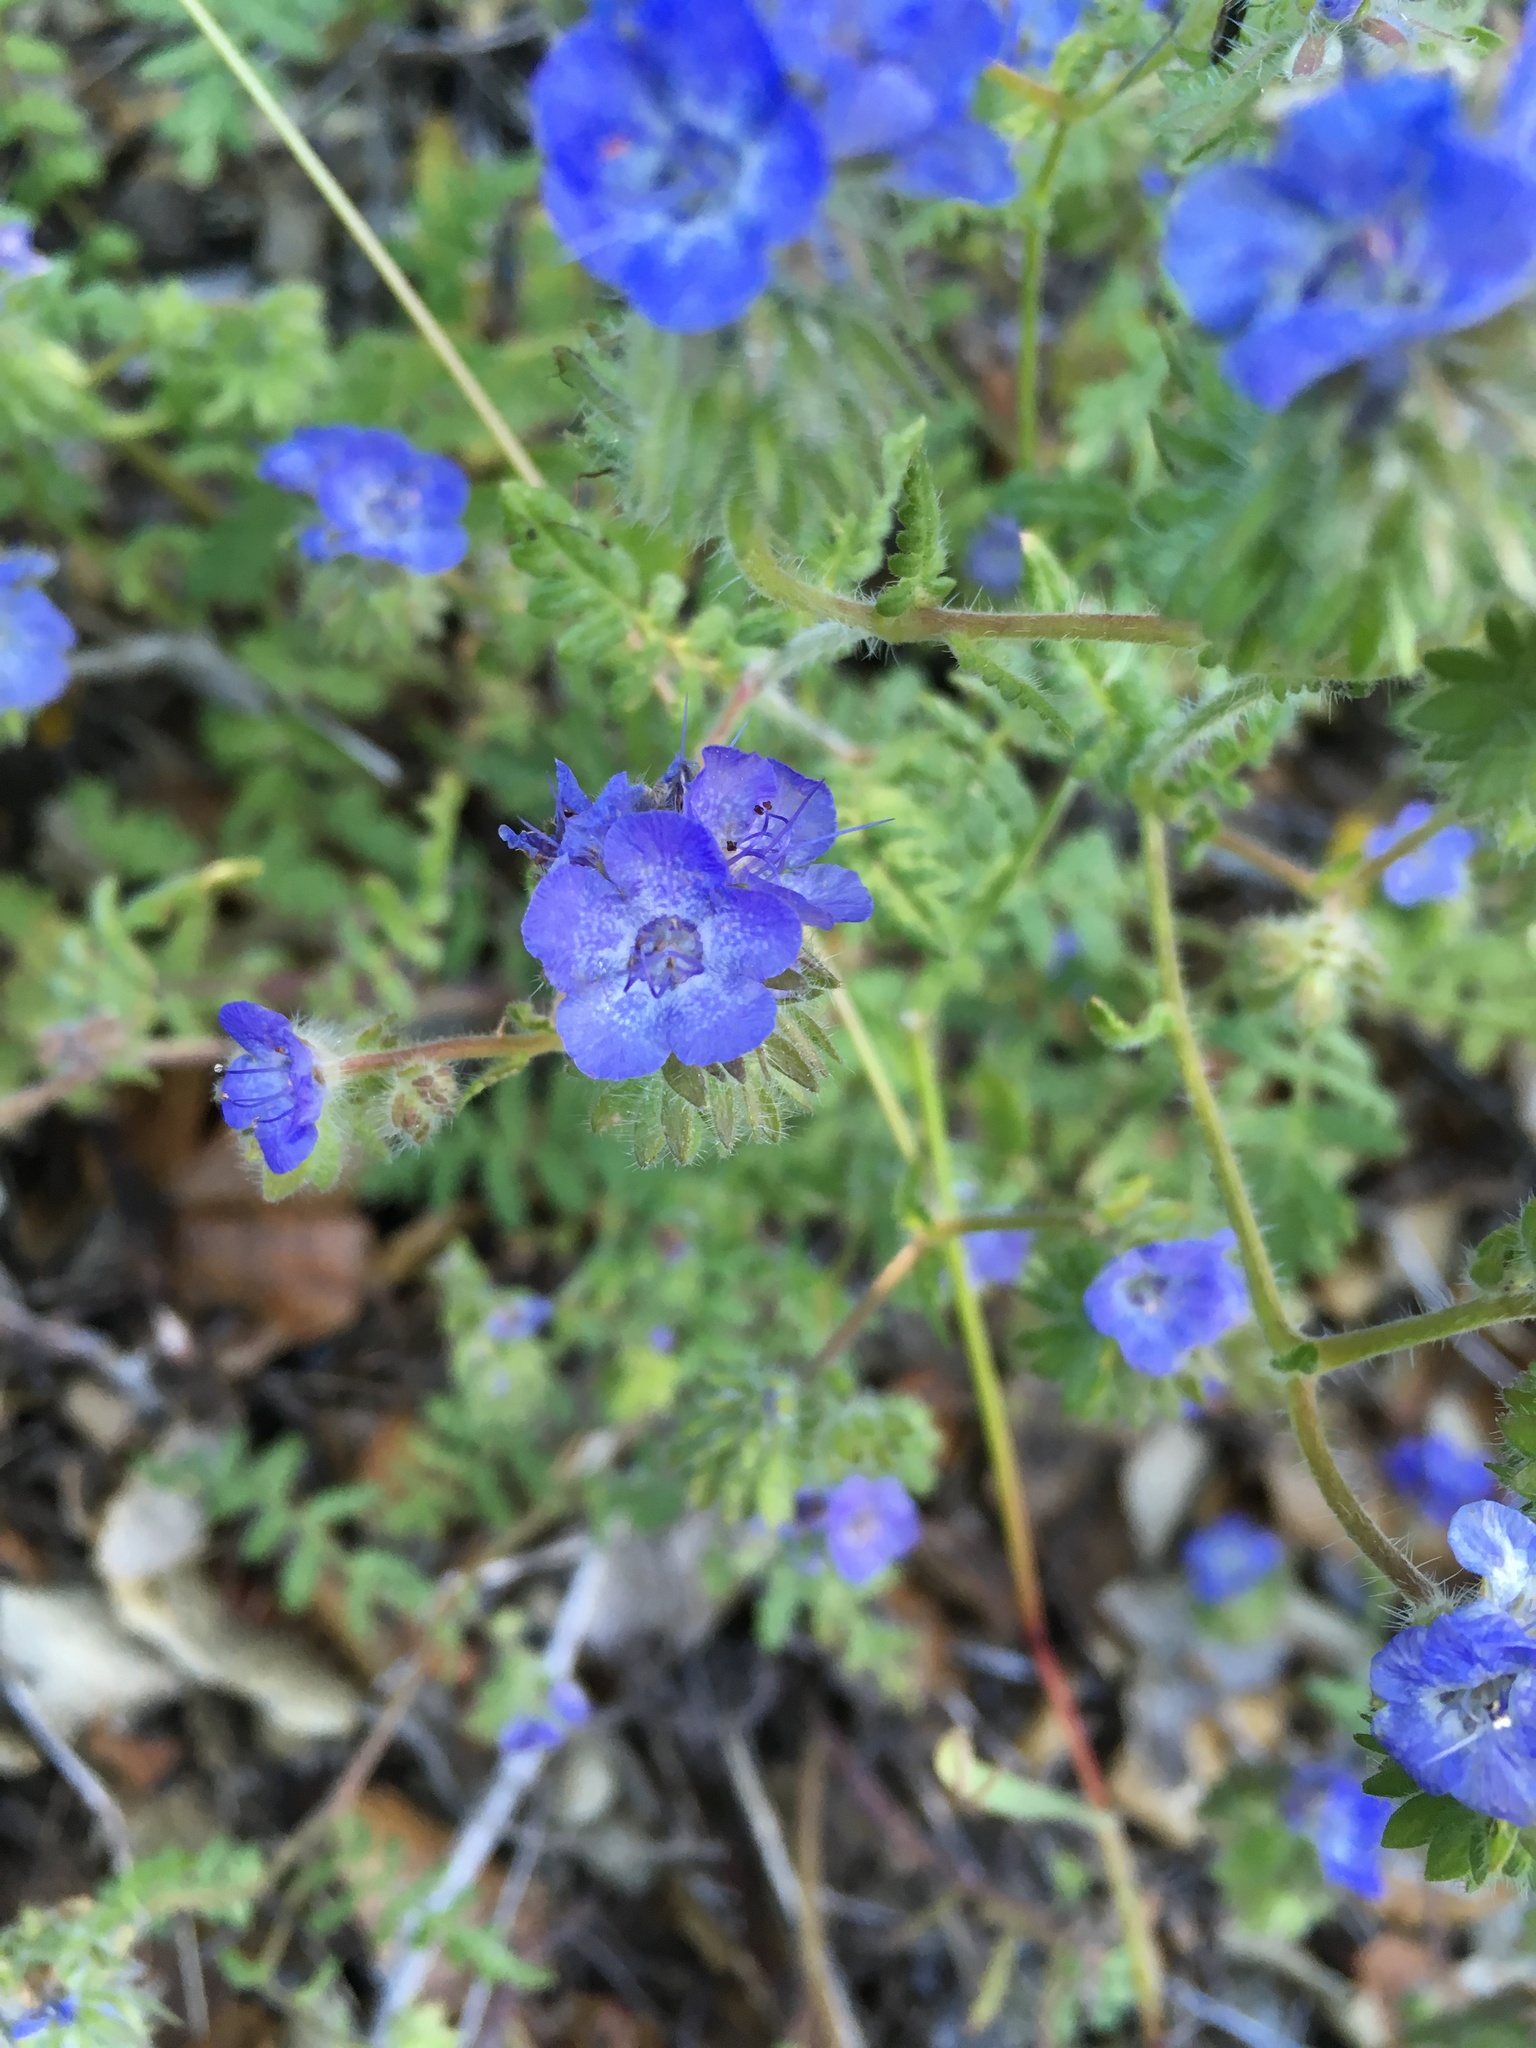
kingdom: Plantae
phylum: Tracheophyta
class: Magnoliopsida
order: Boraginales
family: Hydrophyllaceae
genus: Phacelia
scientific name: Phacelia distans
